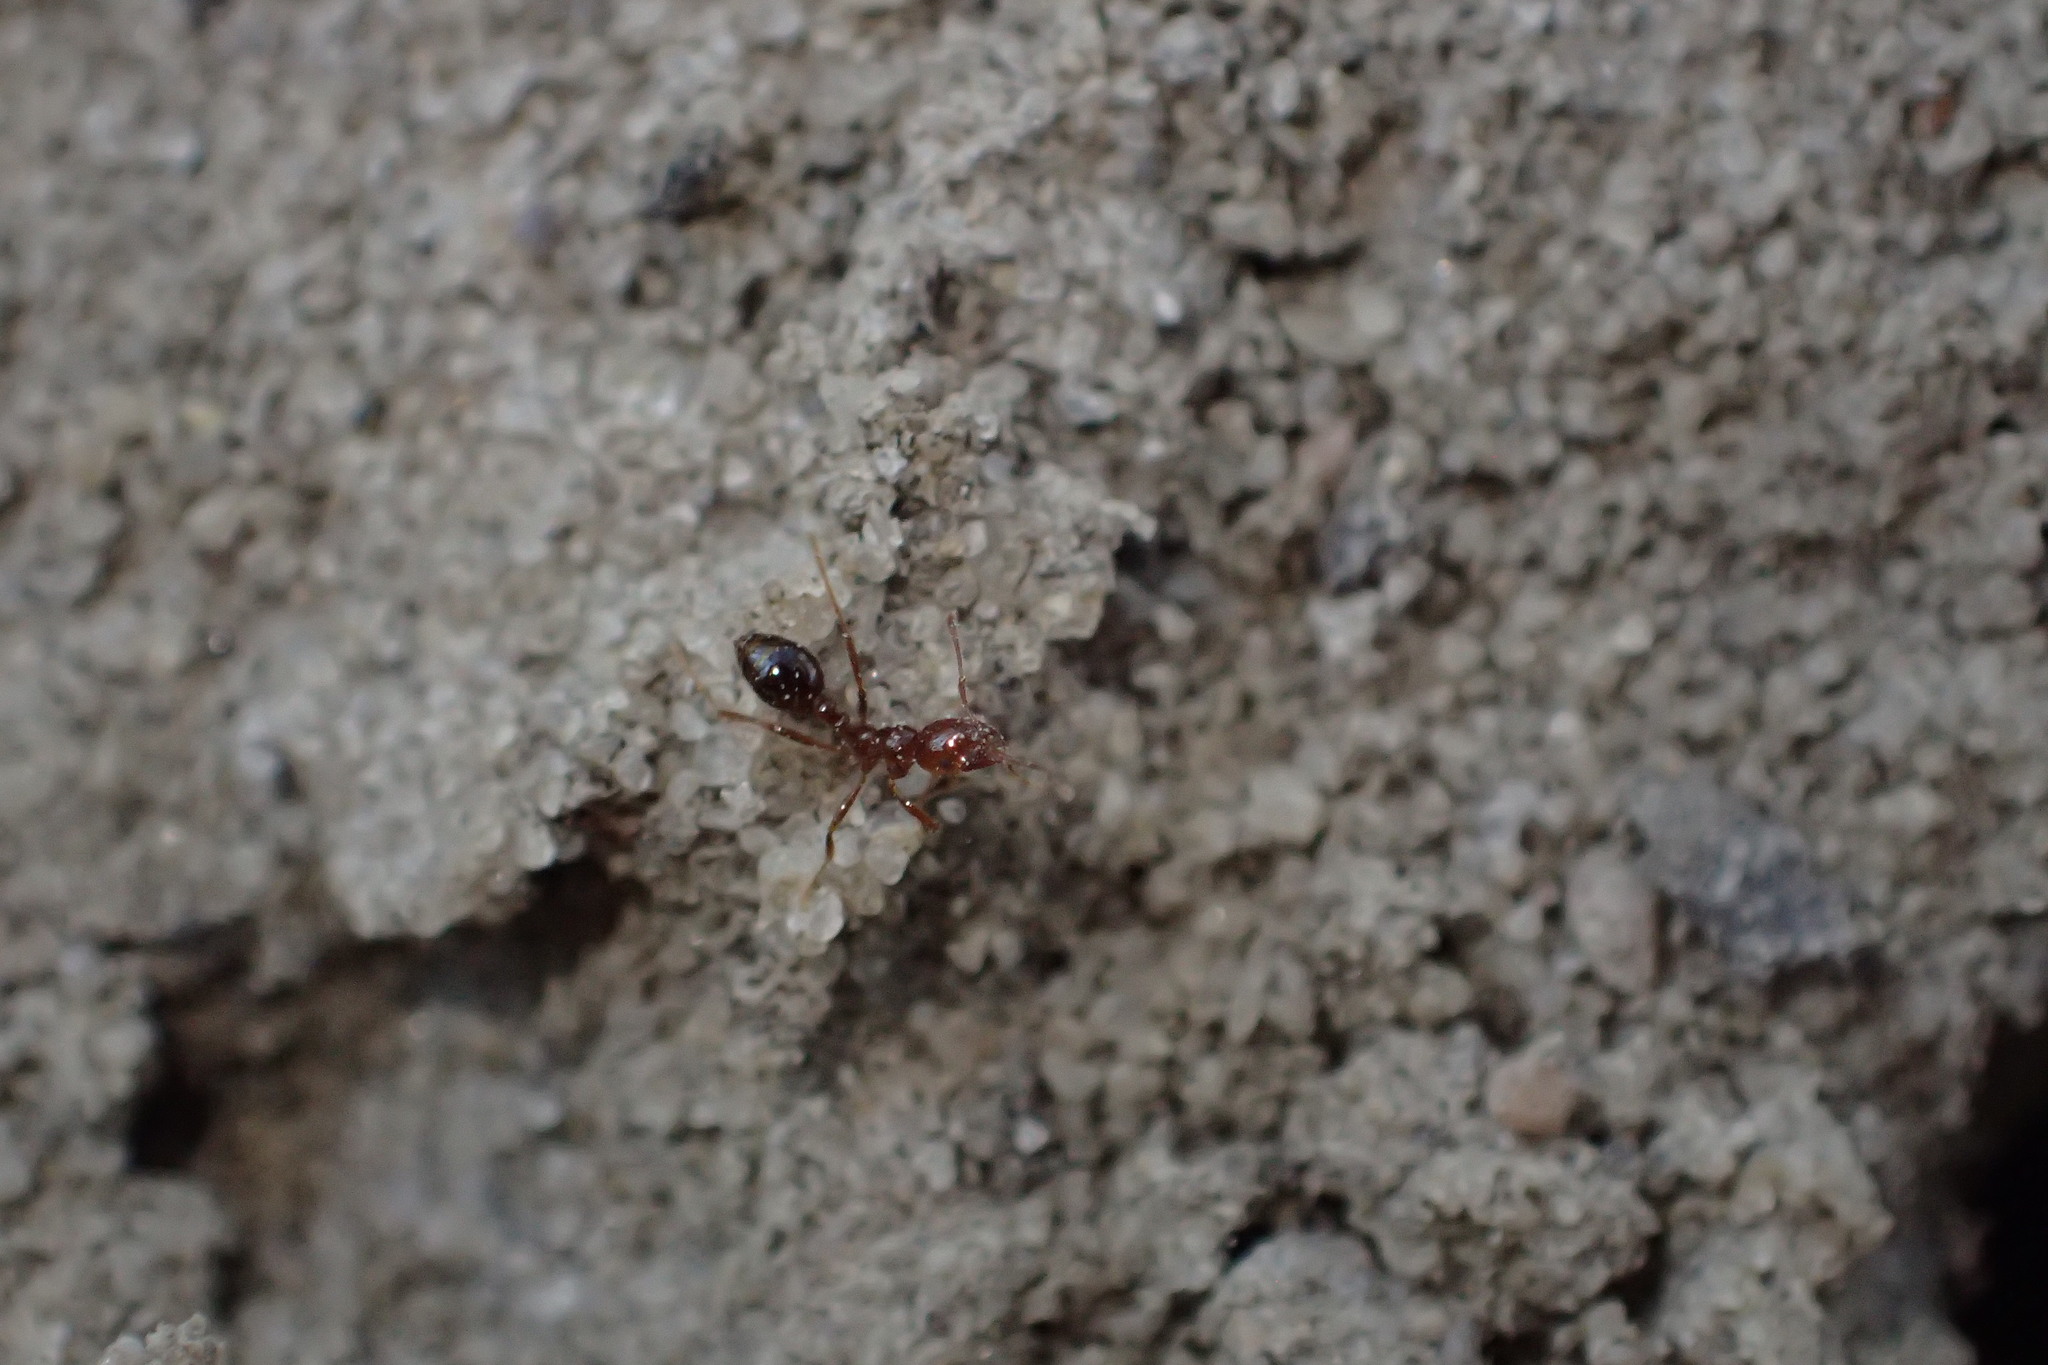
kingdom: Animalia
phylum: Arthropoda
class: Insecta
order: Hymenoptera
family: Formicidae
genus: Solenopsis
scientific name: Solenopsis invicta
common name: Red imported fire ant
